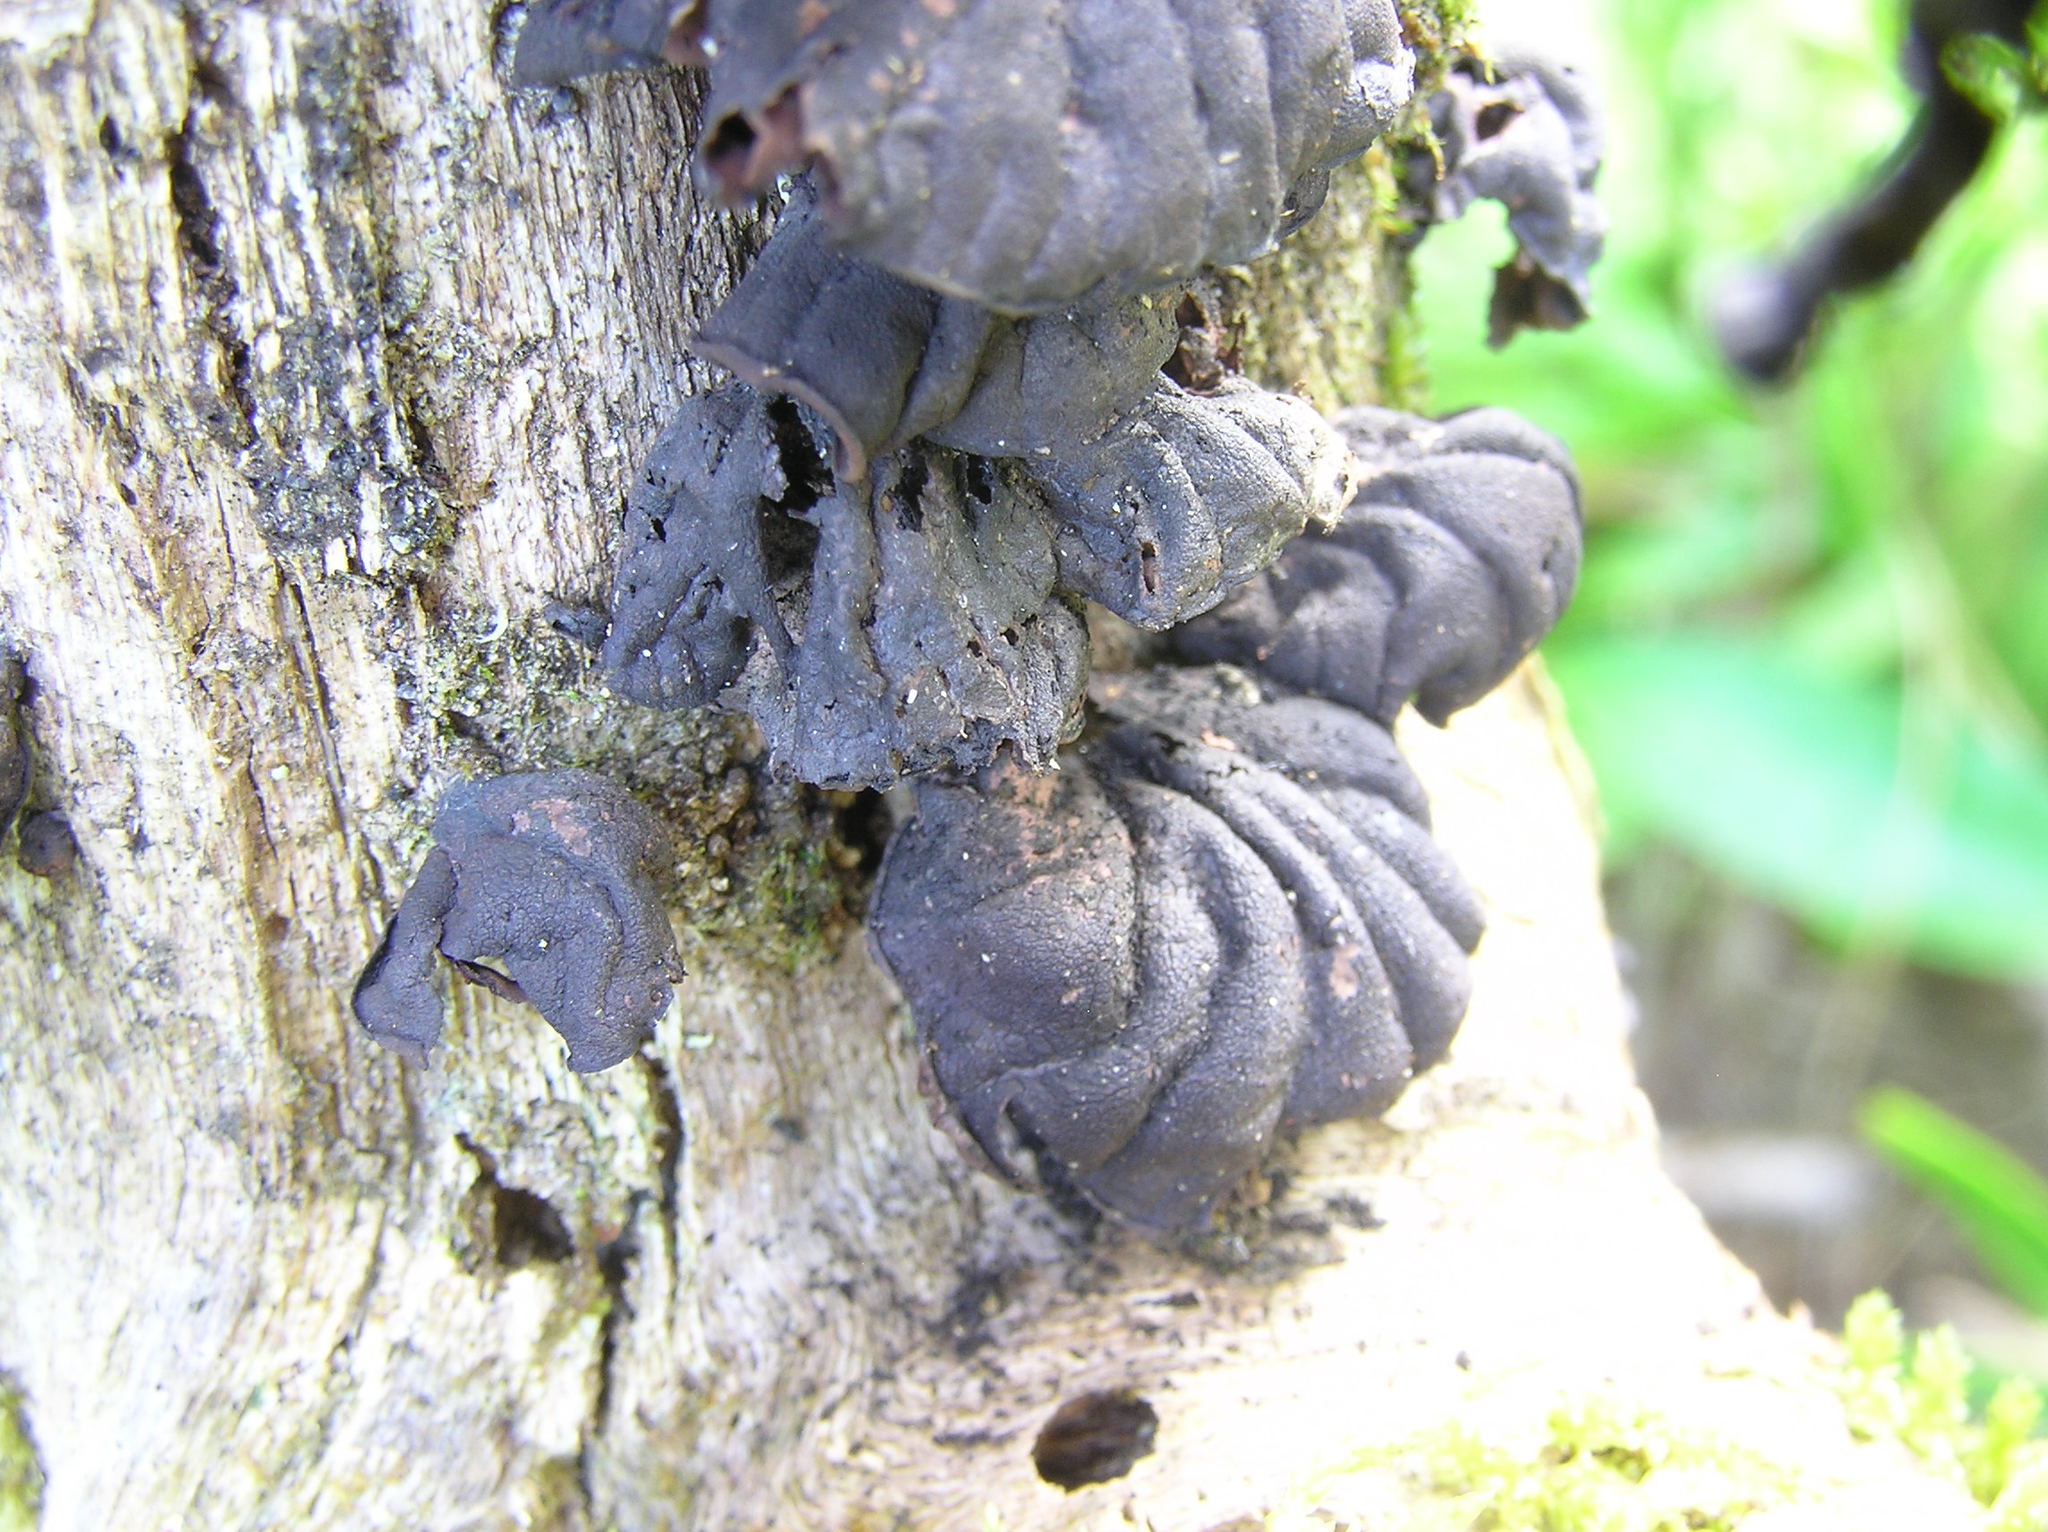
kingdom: Fungi
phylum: Basidiomycota
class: Agaricomycetes
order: Agaricales
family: Omphalotaceae
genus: Anthracophyllum
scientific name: Anthracophyllum archeri
